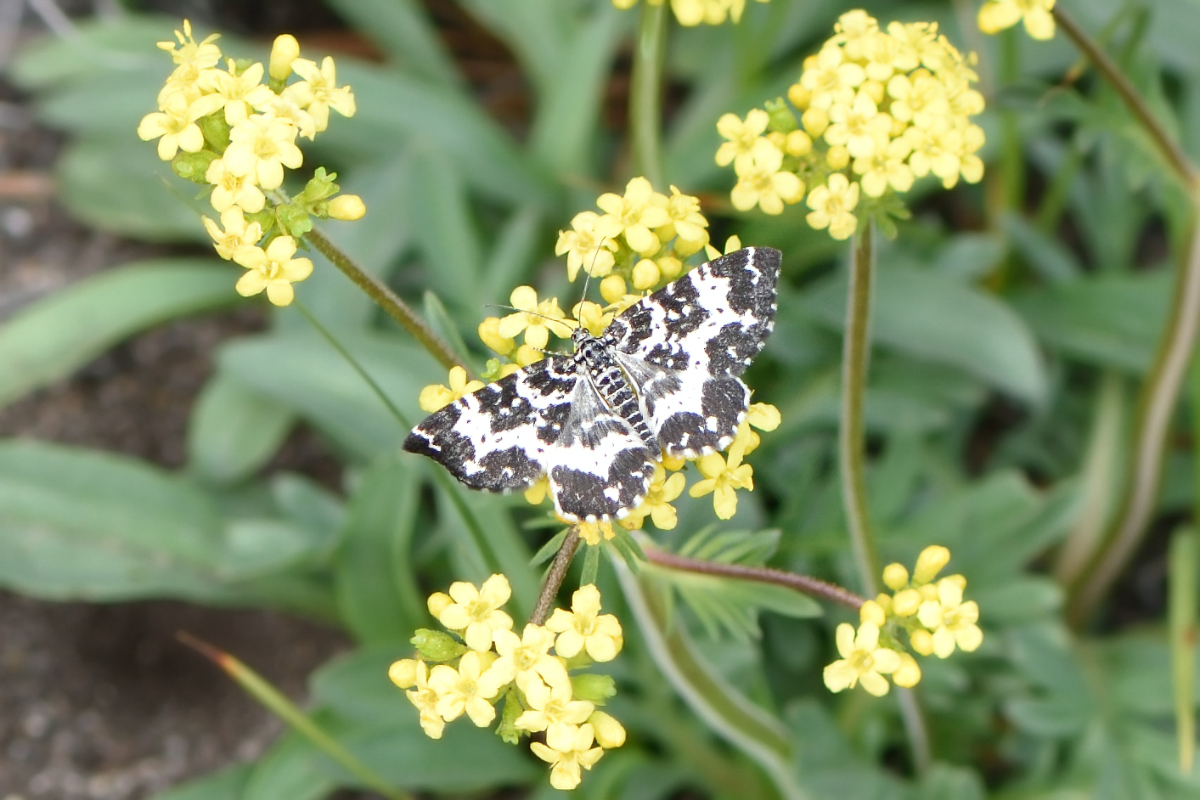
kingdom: Animalia
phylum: Arthropoda
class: Insecta
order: Lepidoptera
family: Geometridae
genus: Rheumaptera
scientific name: Rheumaptera hastata
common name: Argent & sable
